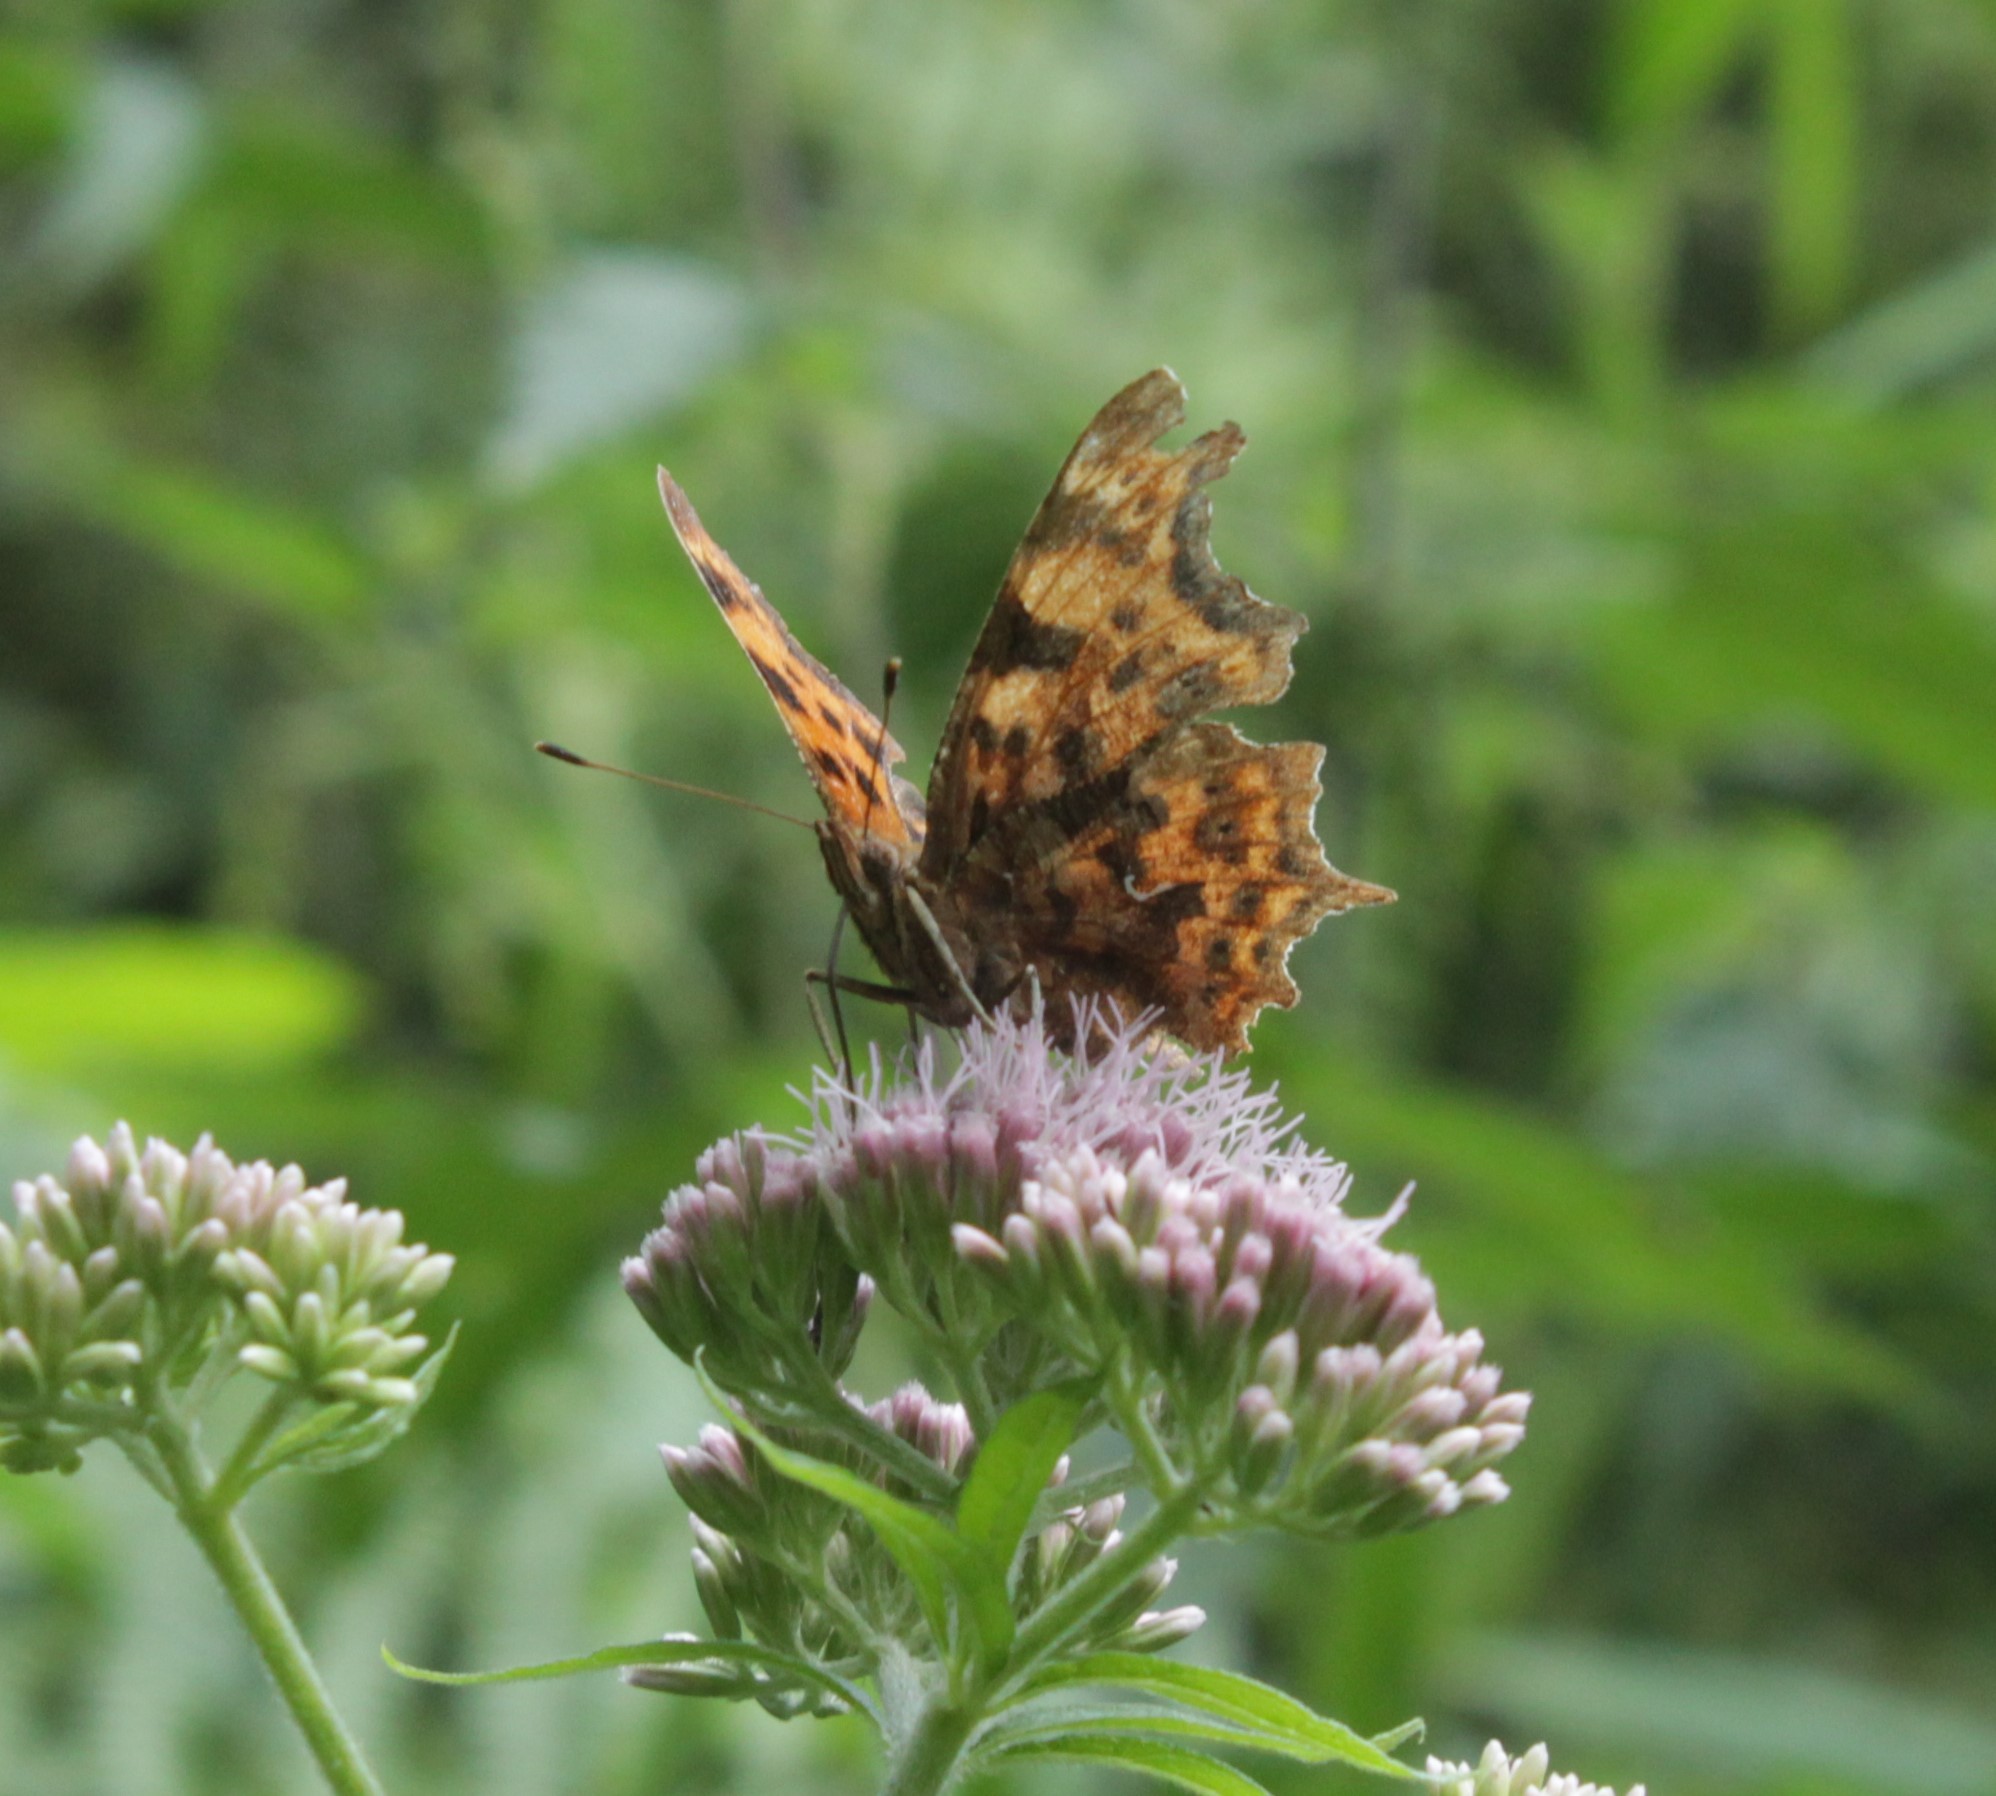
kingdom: Animalia
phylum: Arthropoda
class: Insecta
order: Lepidoptera
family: Nymphalidae
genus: Polygonia
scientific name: Polygonia c-album
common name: Comma
